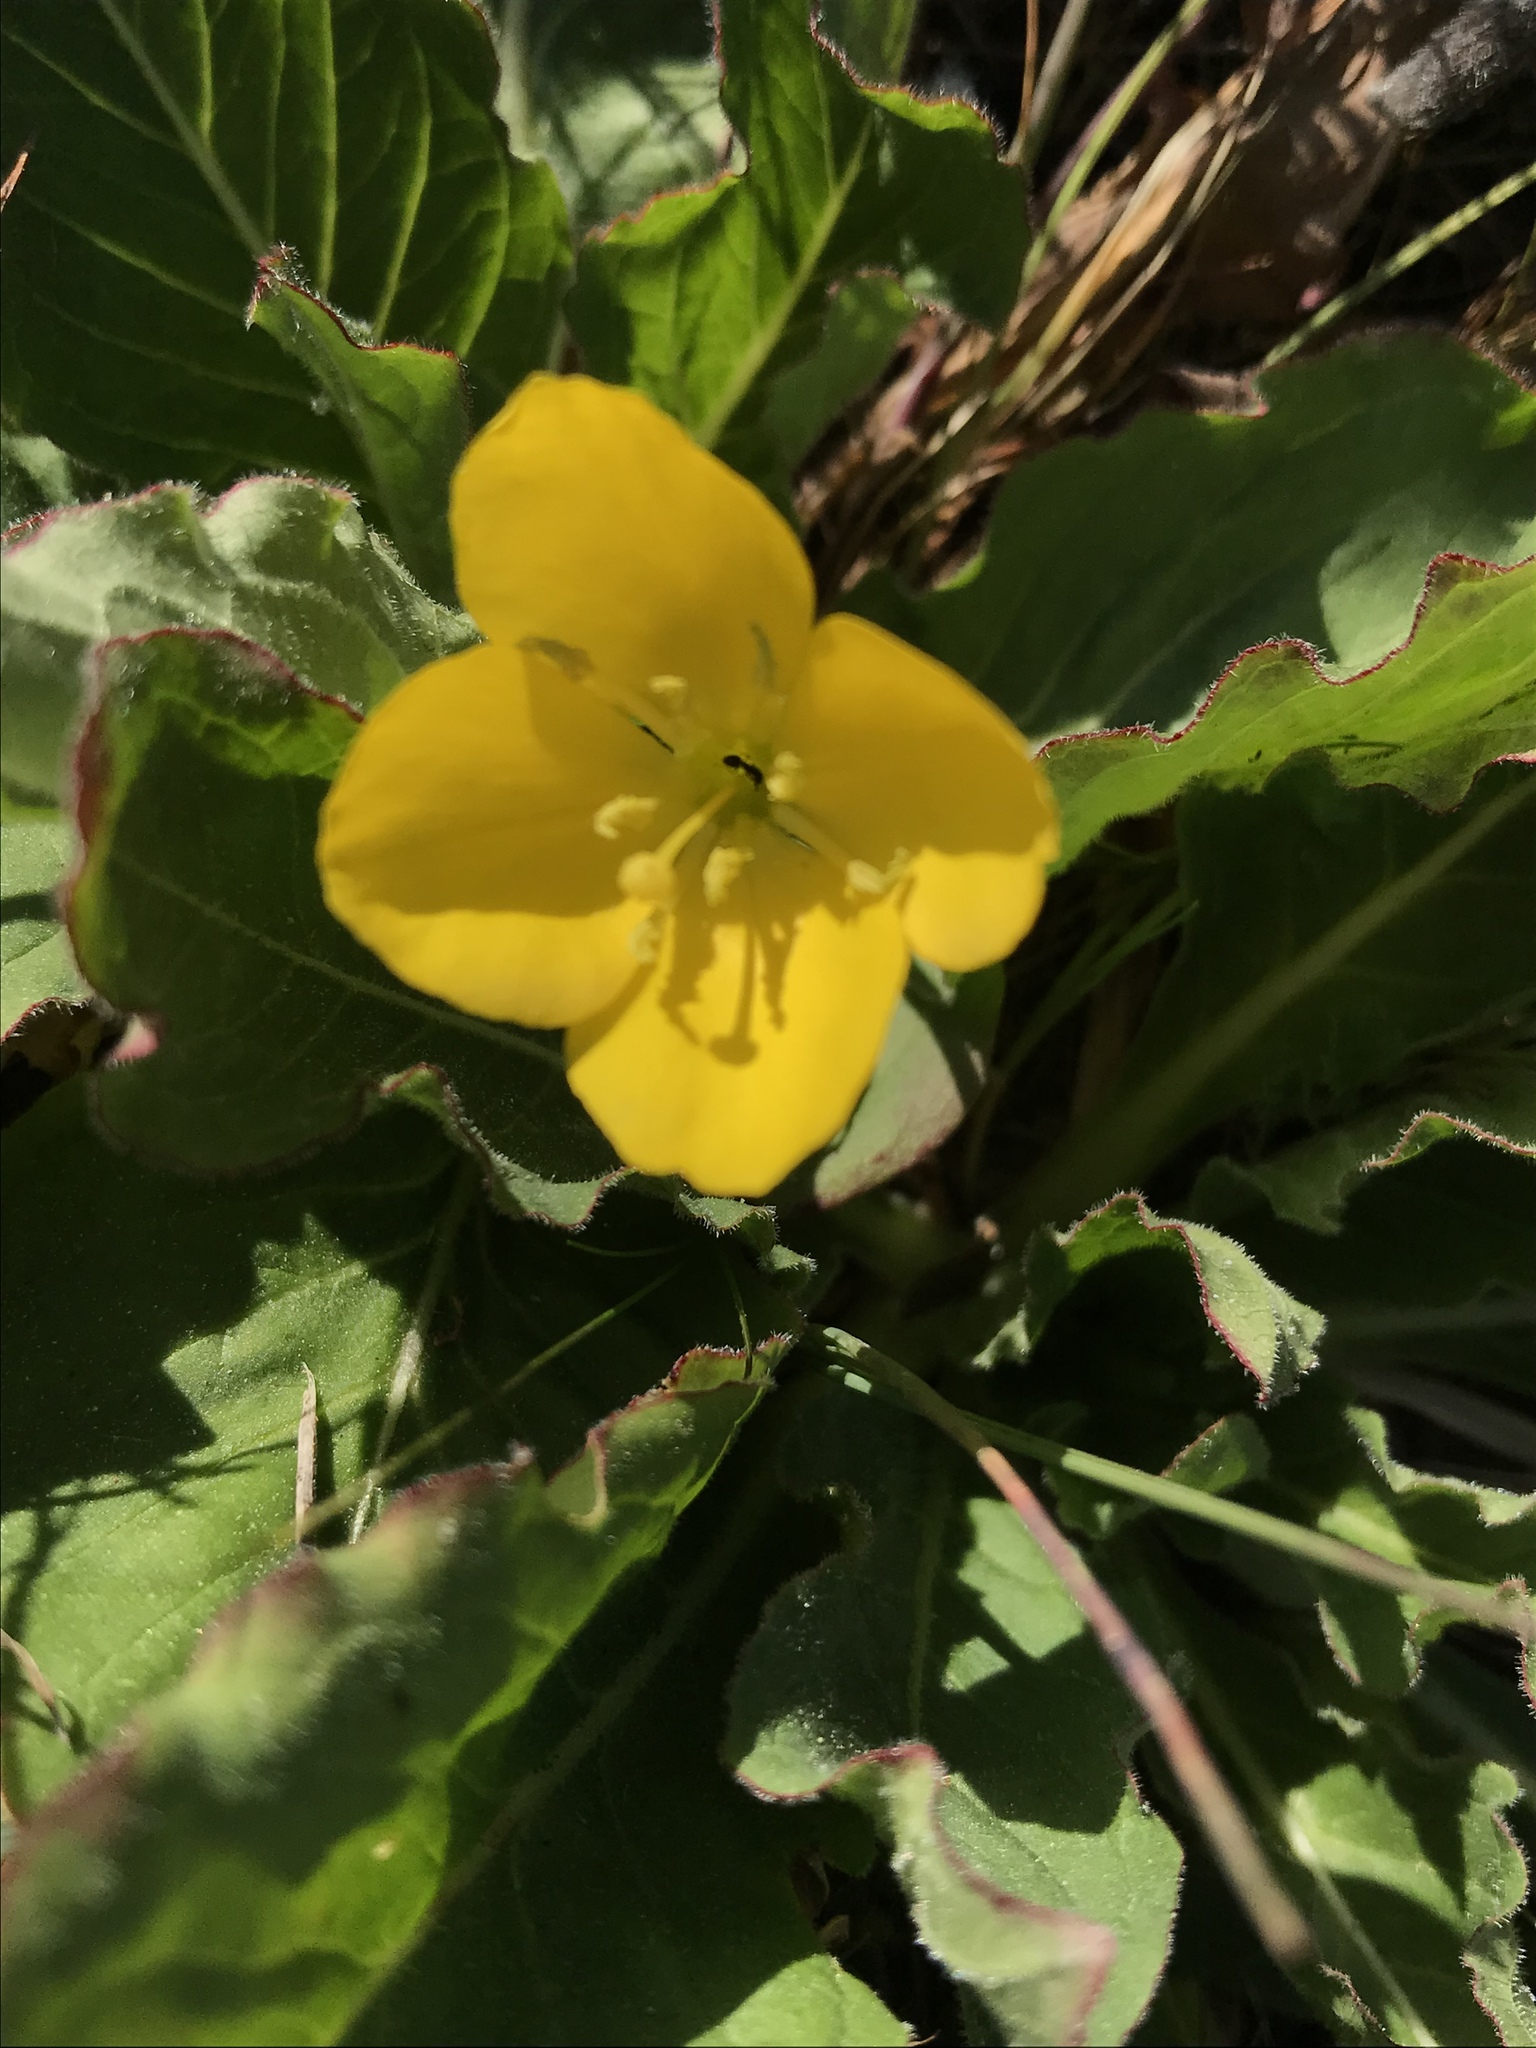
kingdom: Plantae
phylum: Tracheophyta
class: Magnoliopsida
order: Myrtales
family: Onagraceae
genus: Taraxia
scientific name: Taraxia ovata
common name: Goldeneggs
